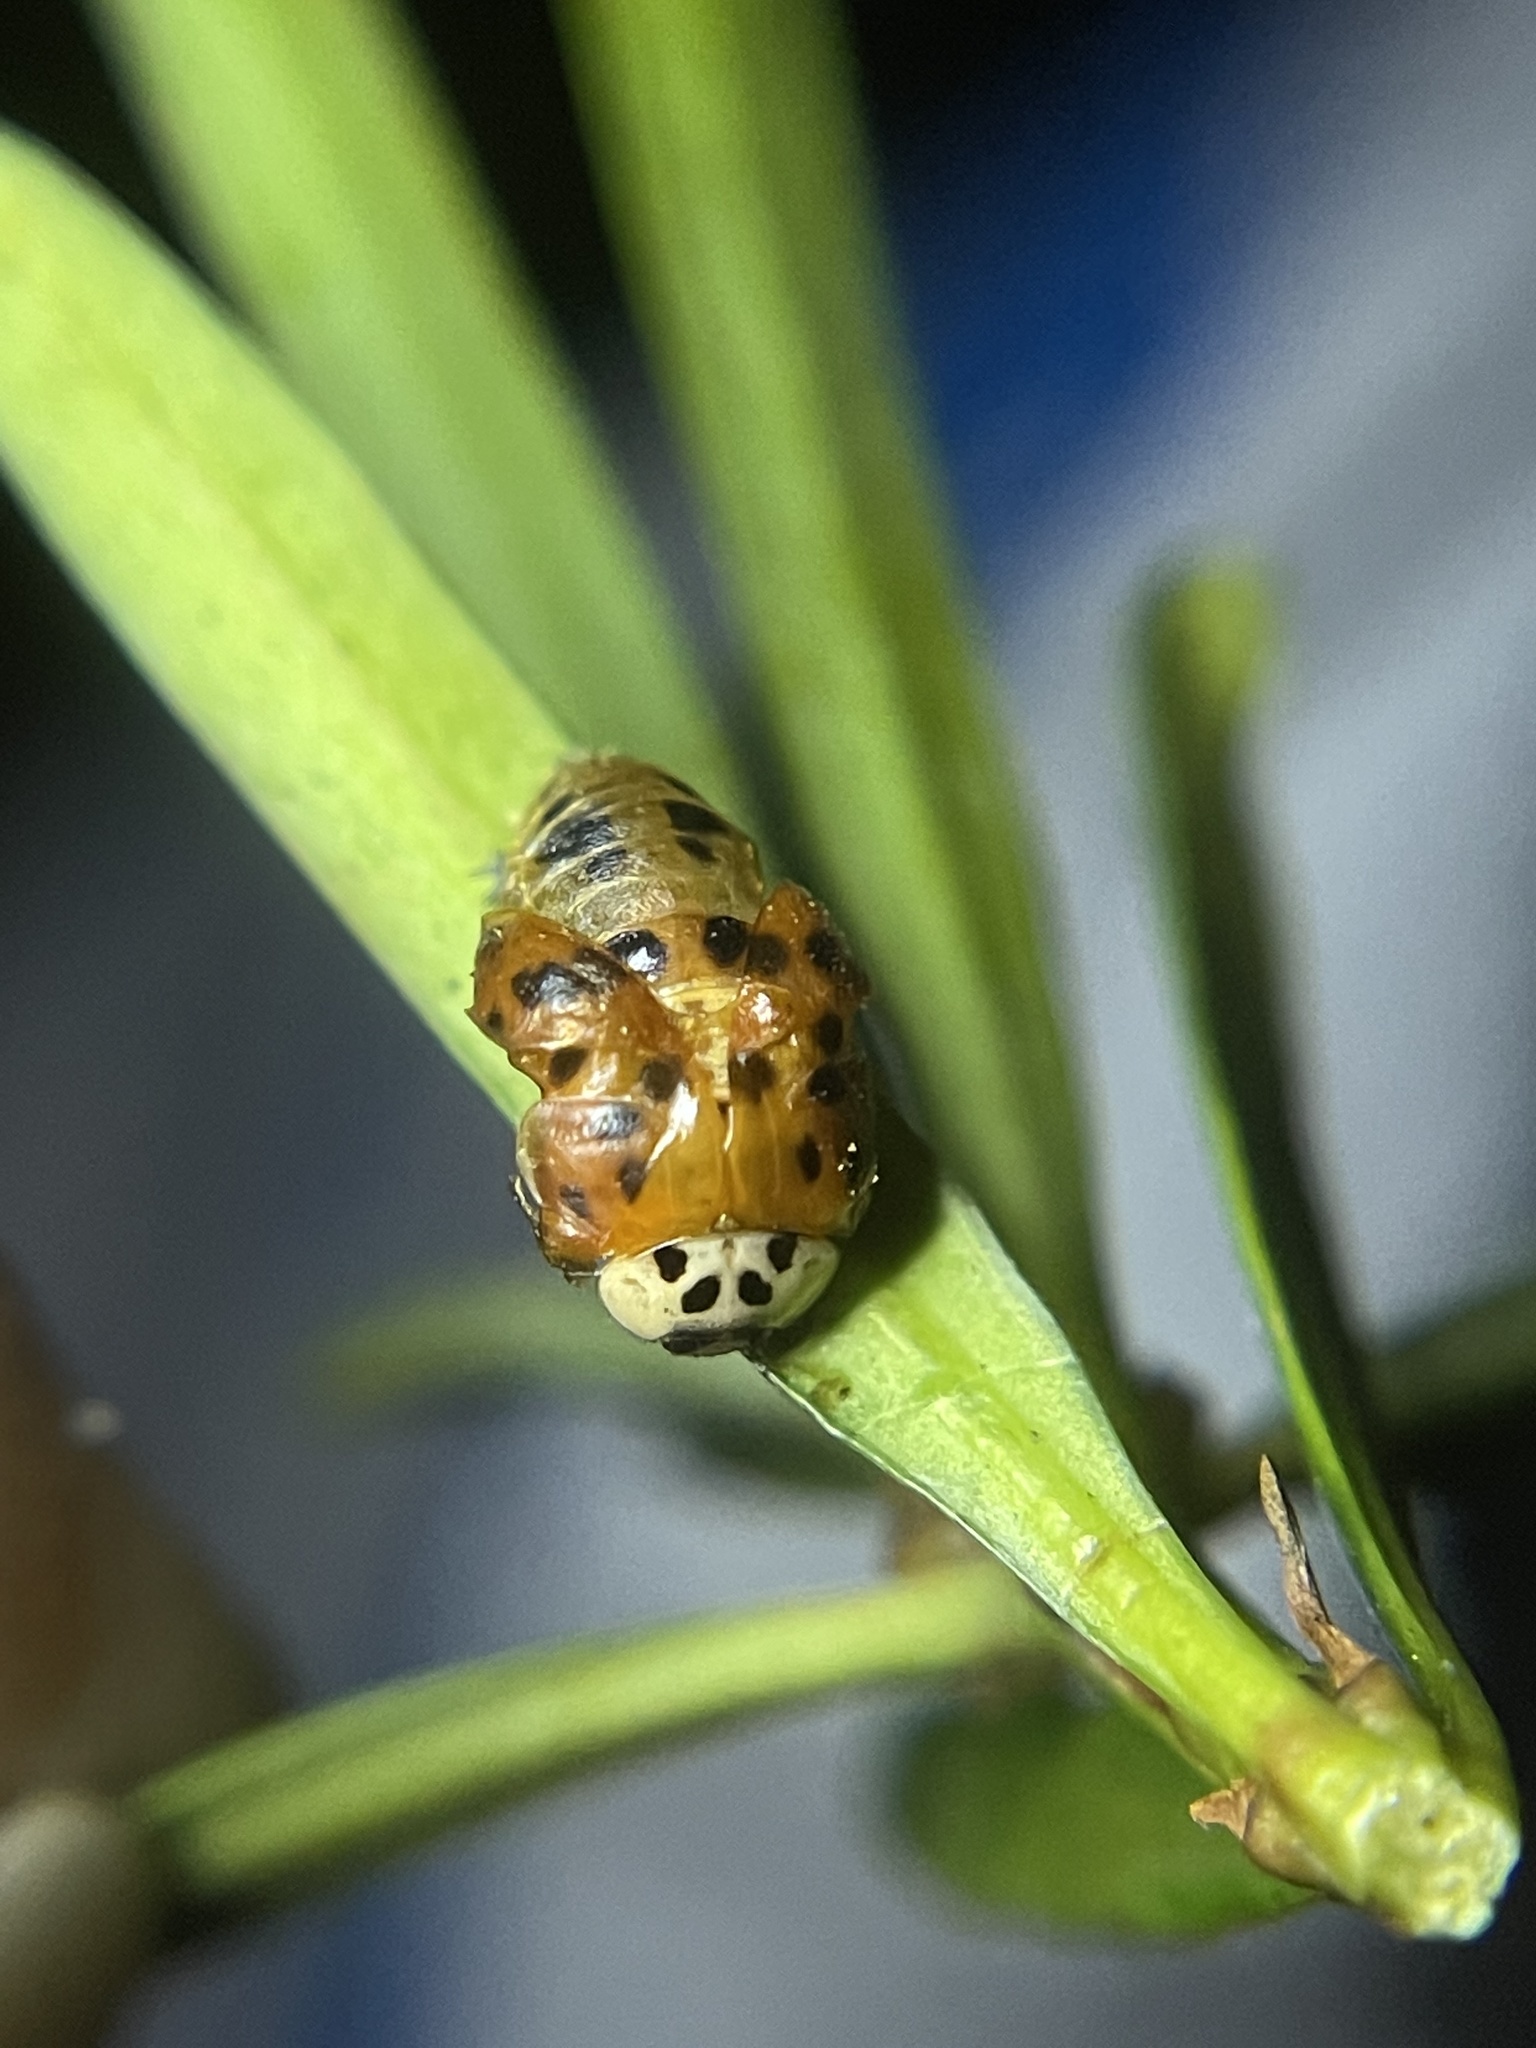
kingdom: Animalia
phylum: Arthropoda
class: Insecta
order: Coleoptera
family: Coccinellidae
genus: Harmonia
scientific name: Harmonia axyridis
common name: Harlequin ladybird
